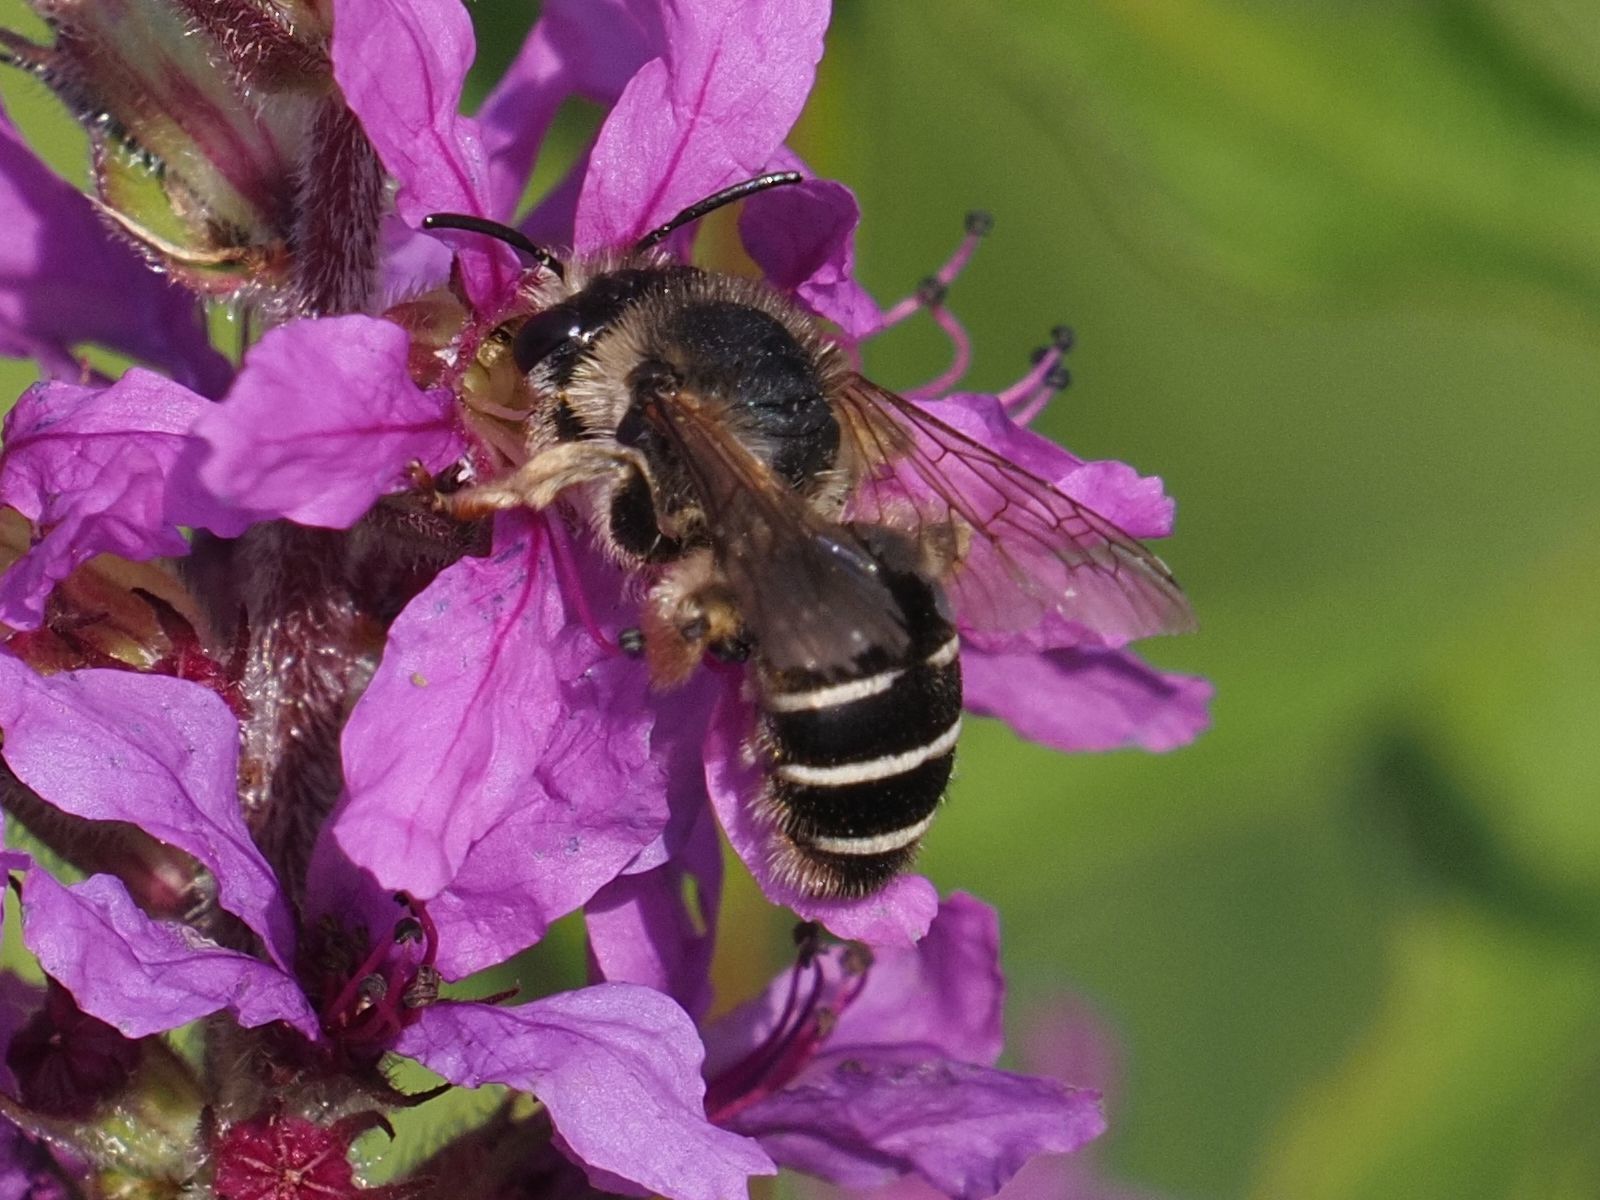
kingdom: Animalia
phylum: Arthropoda
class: Insecta
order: Hymenoptera
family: Melittidae
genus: Melitta
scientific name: Melitta nigricans
